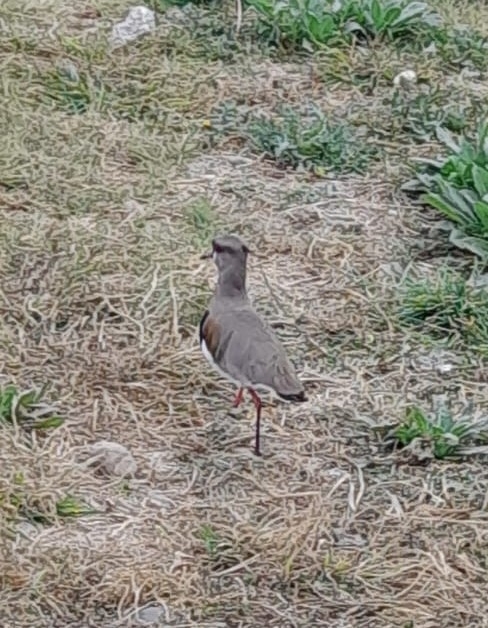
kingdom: Animalia
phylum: Chordata
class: Aves
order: Charadriiformes
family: Charadriidae
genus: Vanellus
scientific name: Vanellus chilensis
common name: Southern lapwing
